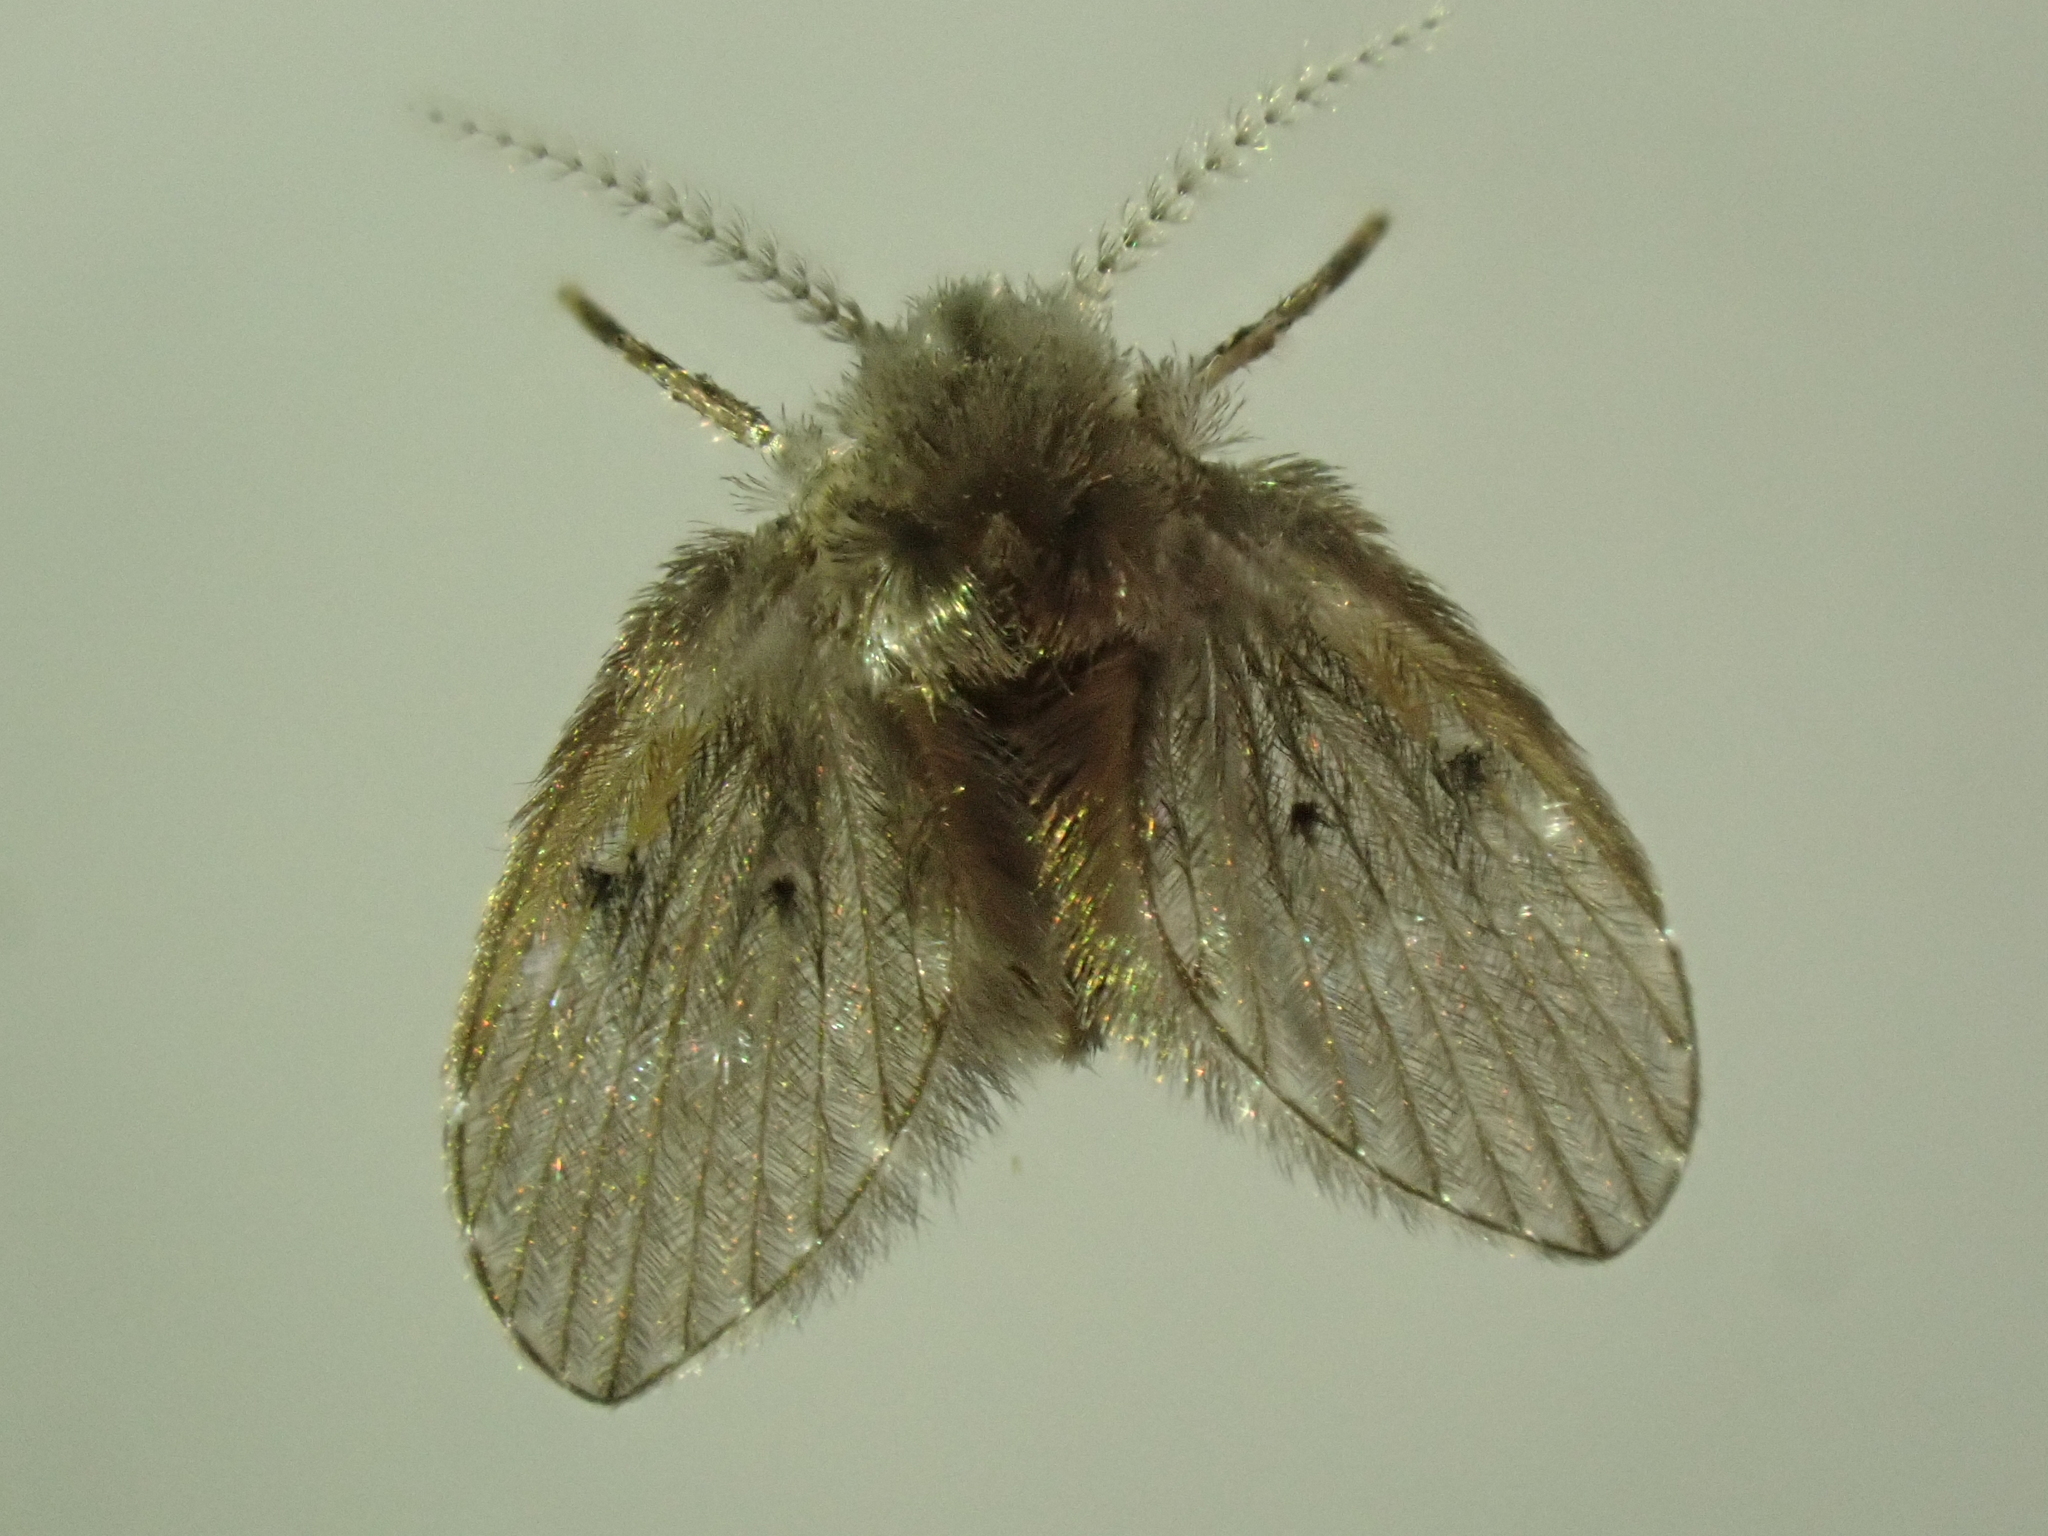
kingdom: Animalia
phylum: Arthropoda
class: Insecta
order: Diptera
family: Psychodidae
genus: Clogmia
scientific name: Clogmia albipunctatus
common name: White-spotted moth fly
